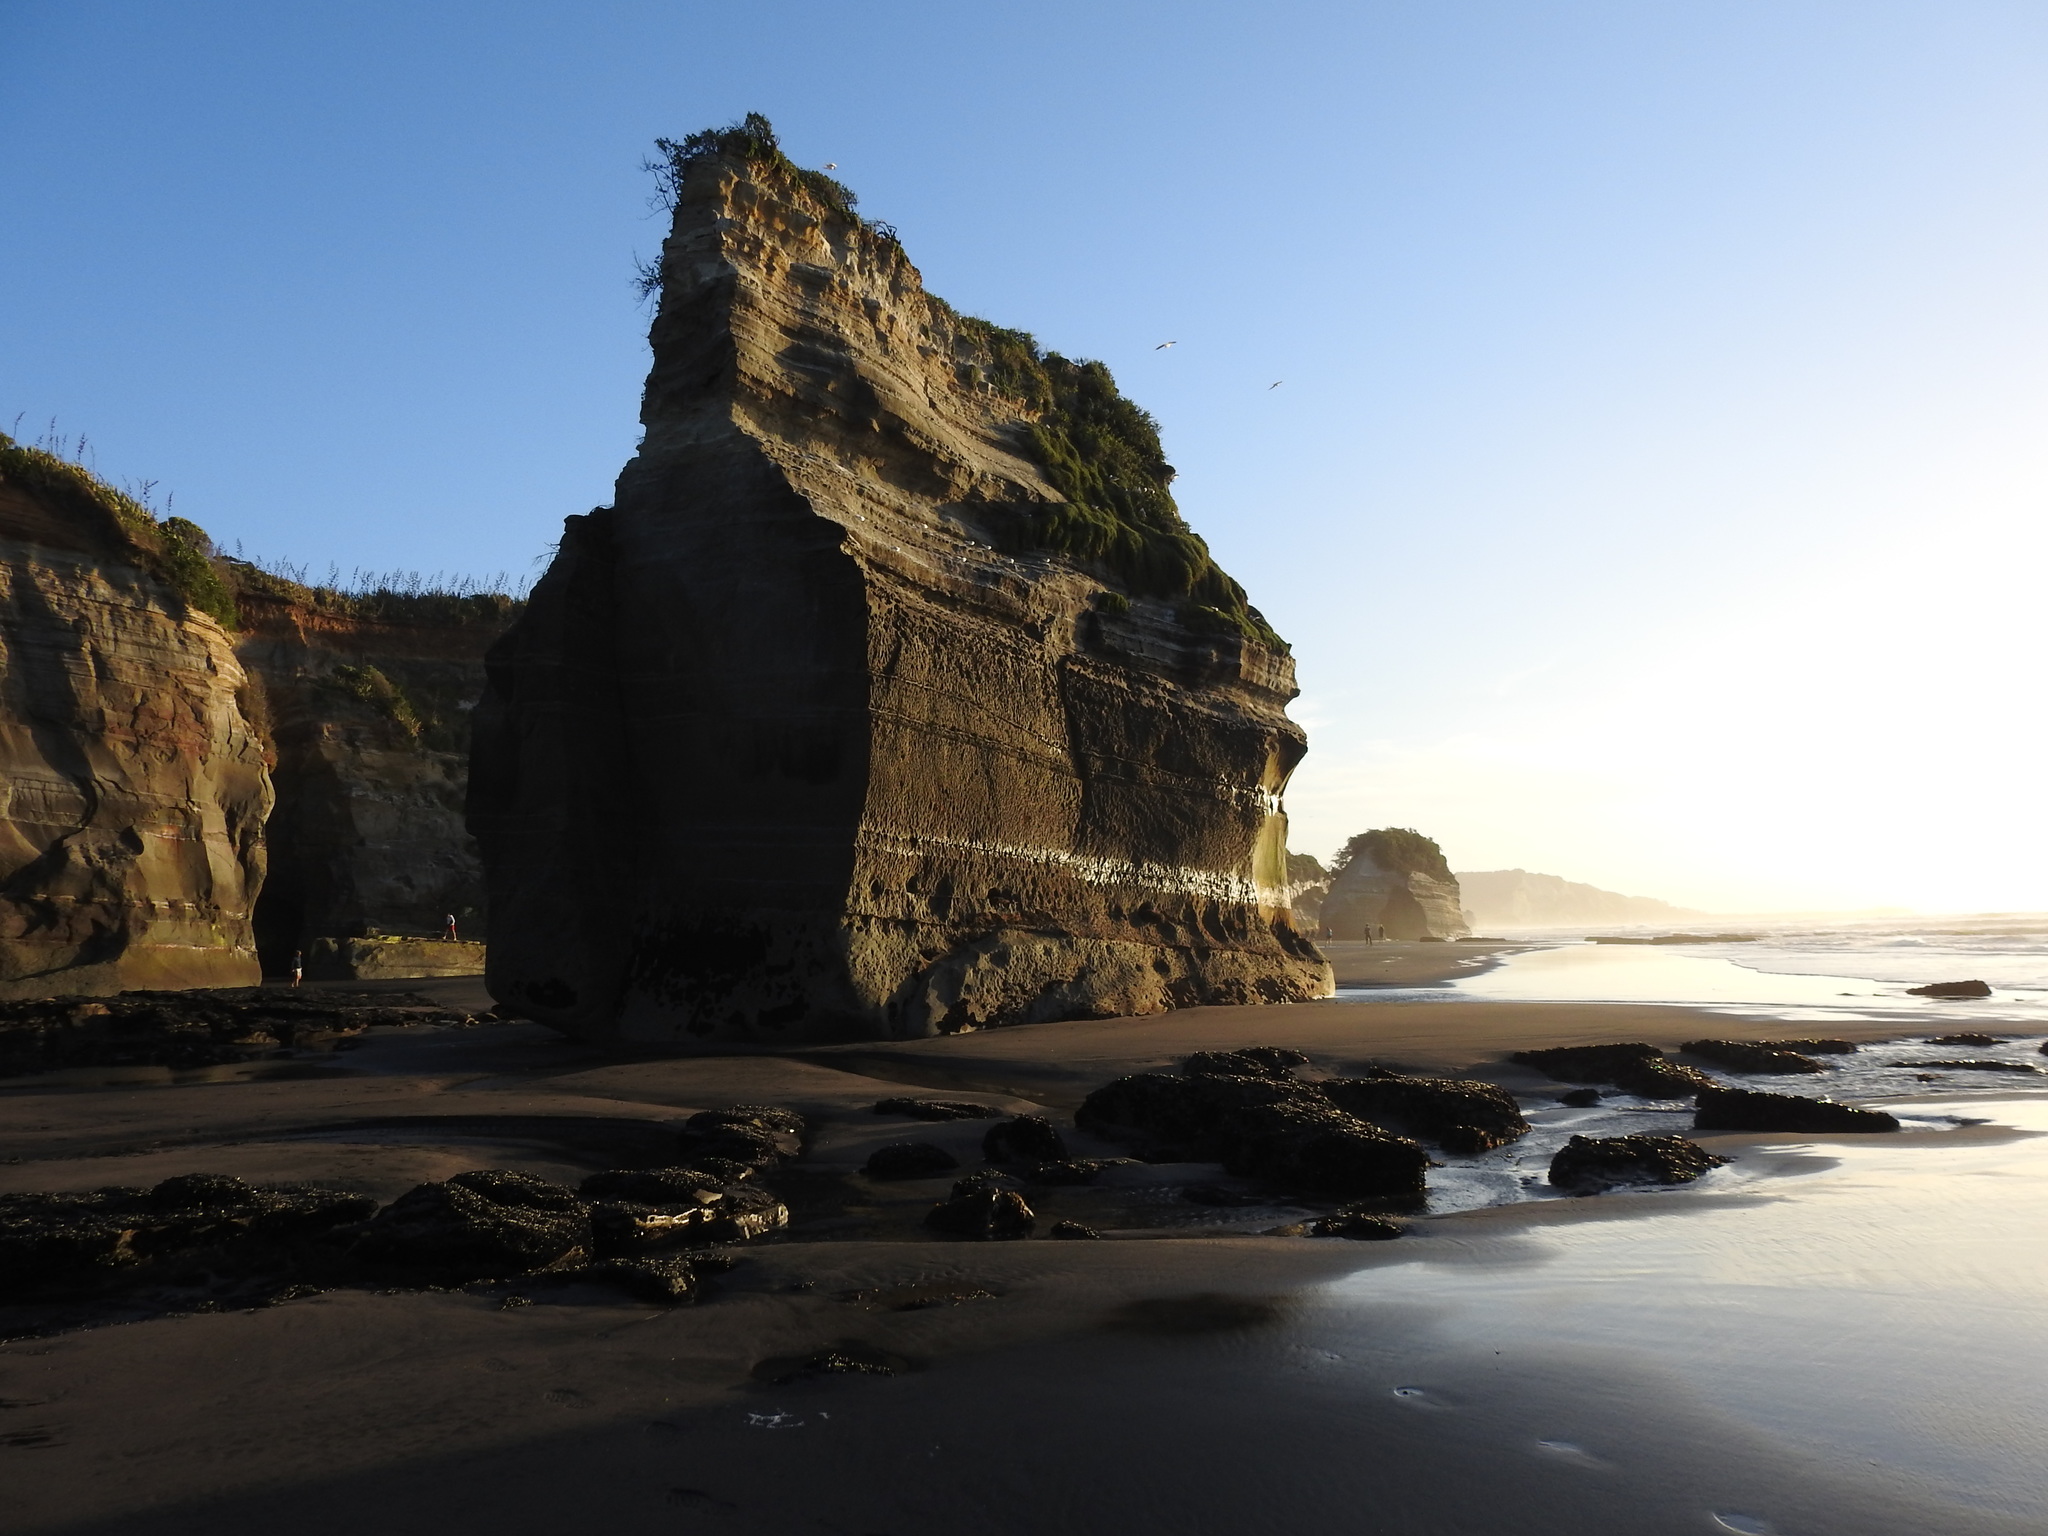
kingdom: Animalia
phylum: Chordata
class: Aves
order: Charadriiformes
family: Laridae
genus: Sterna
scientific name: Sterna striata
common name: White-fronted tern
